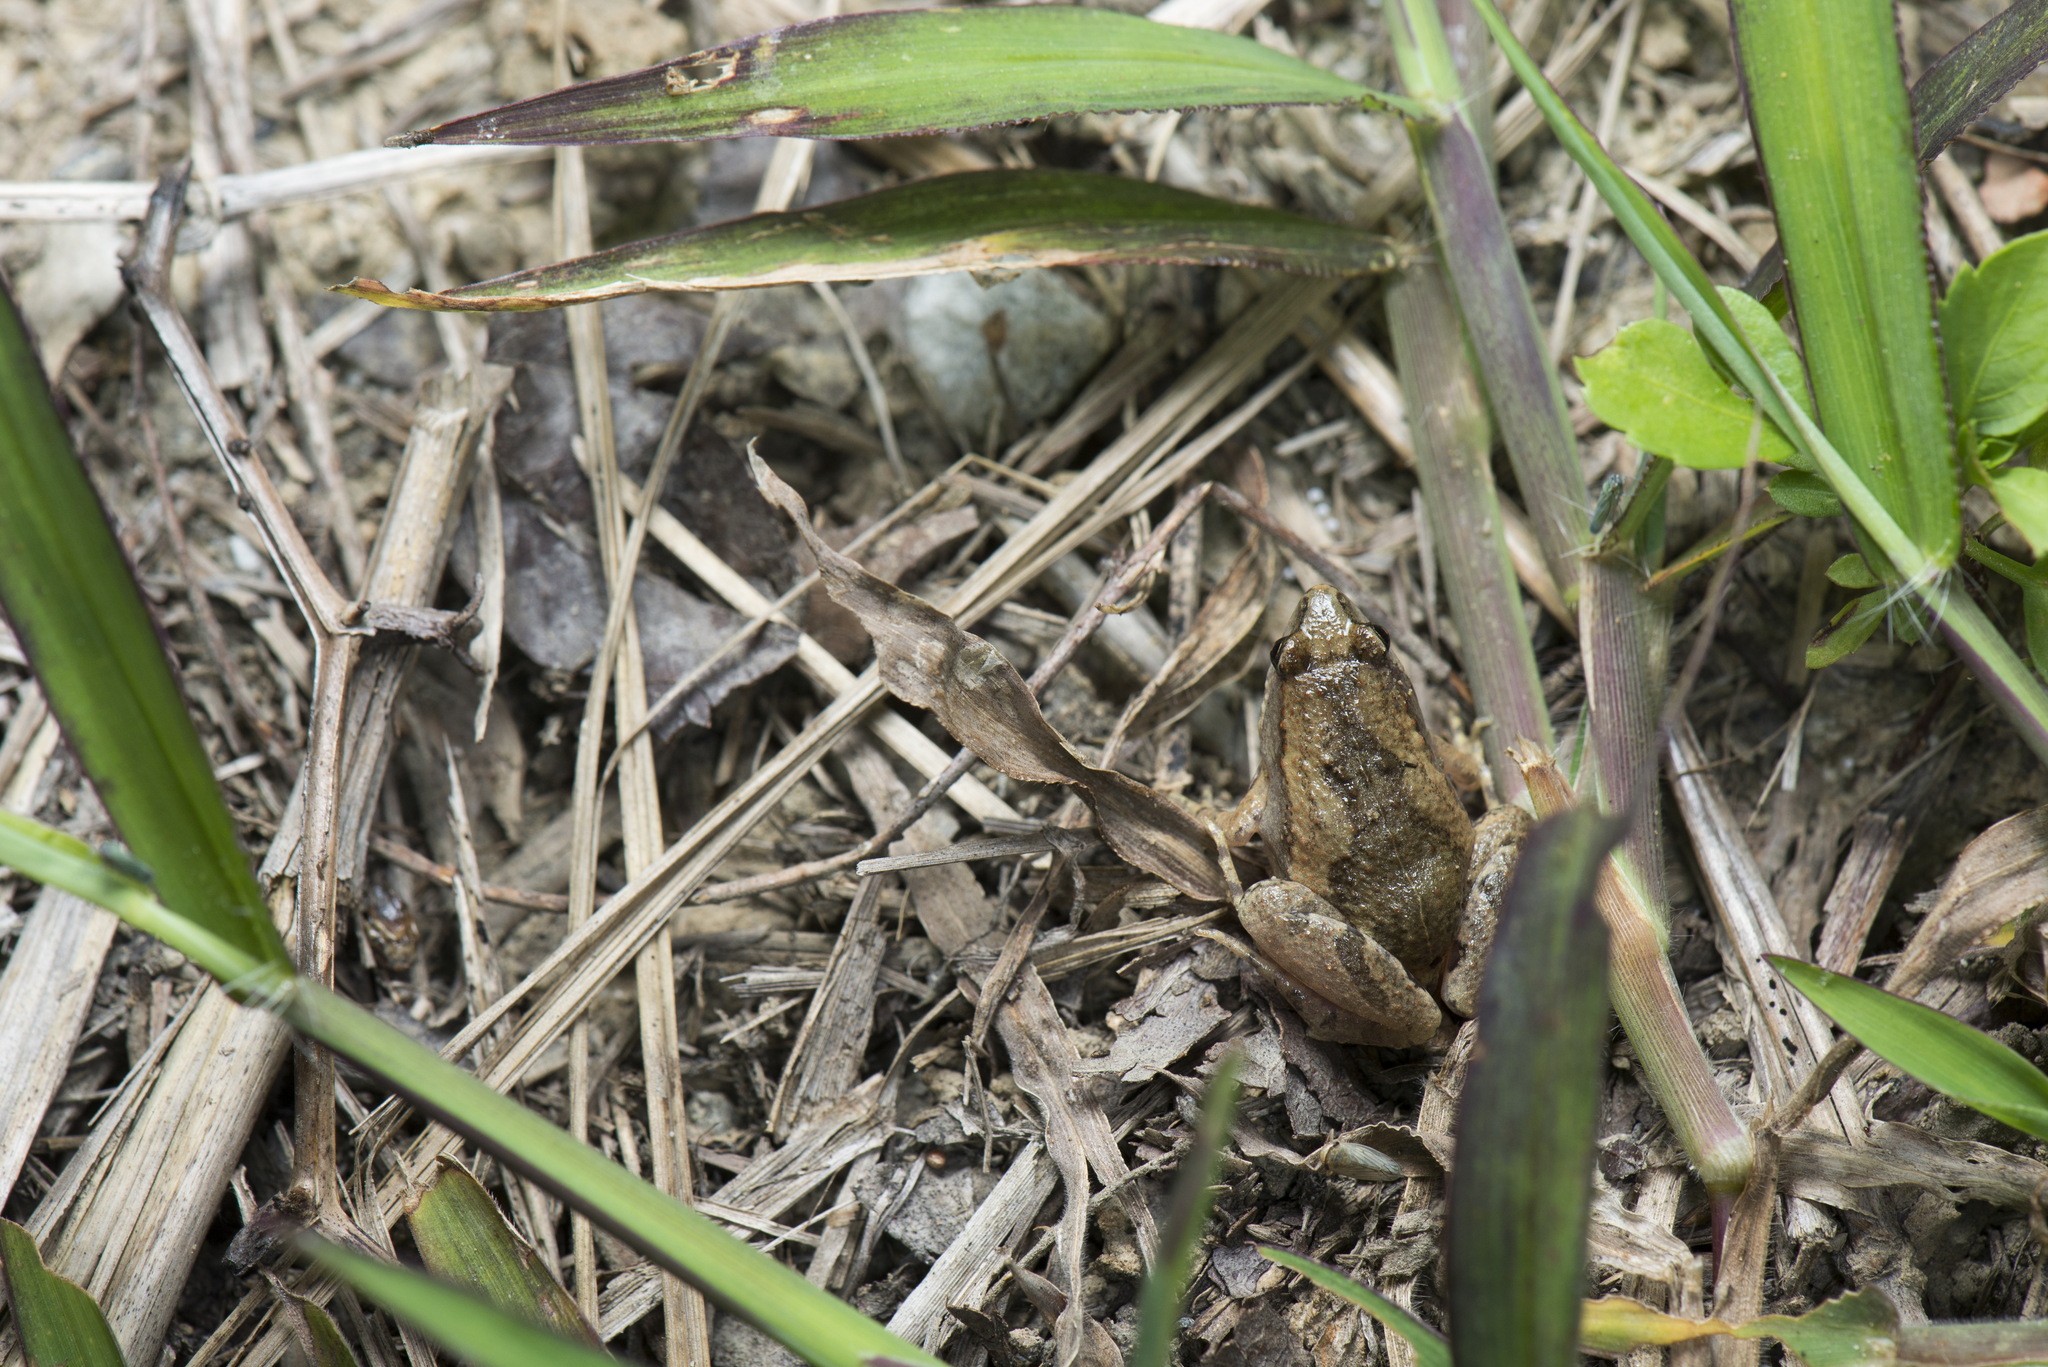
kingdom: Animalia
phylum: Chordata
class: Amphibia
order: Anura
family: Microhylidae
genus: Microhyla
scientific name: Microhyla fissipes
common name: Ornate narrow-mouthed frog
